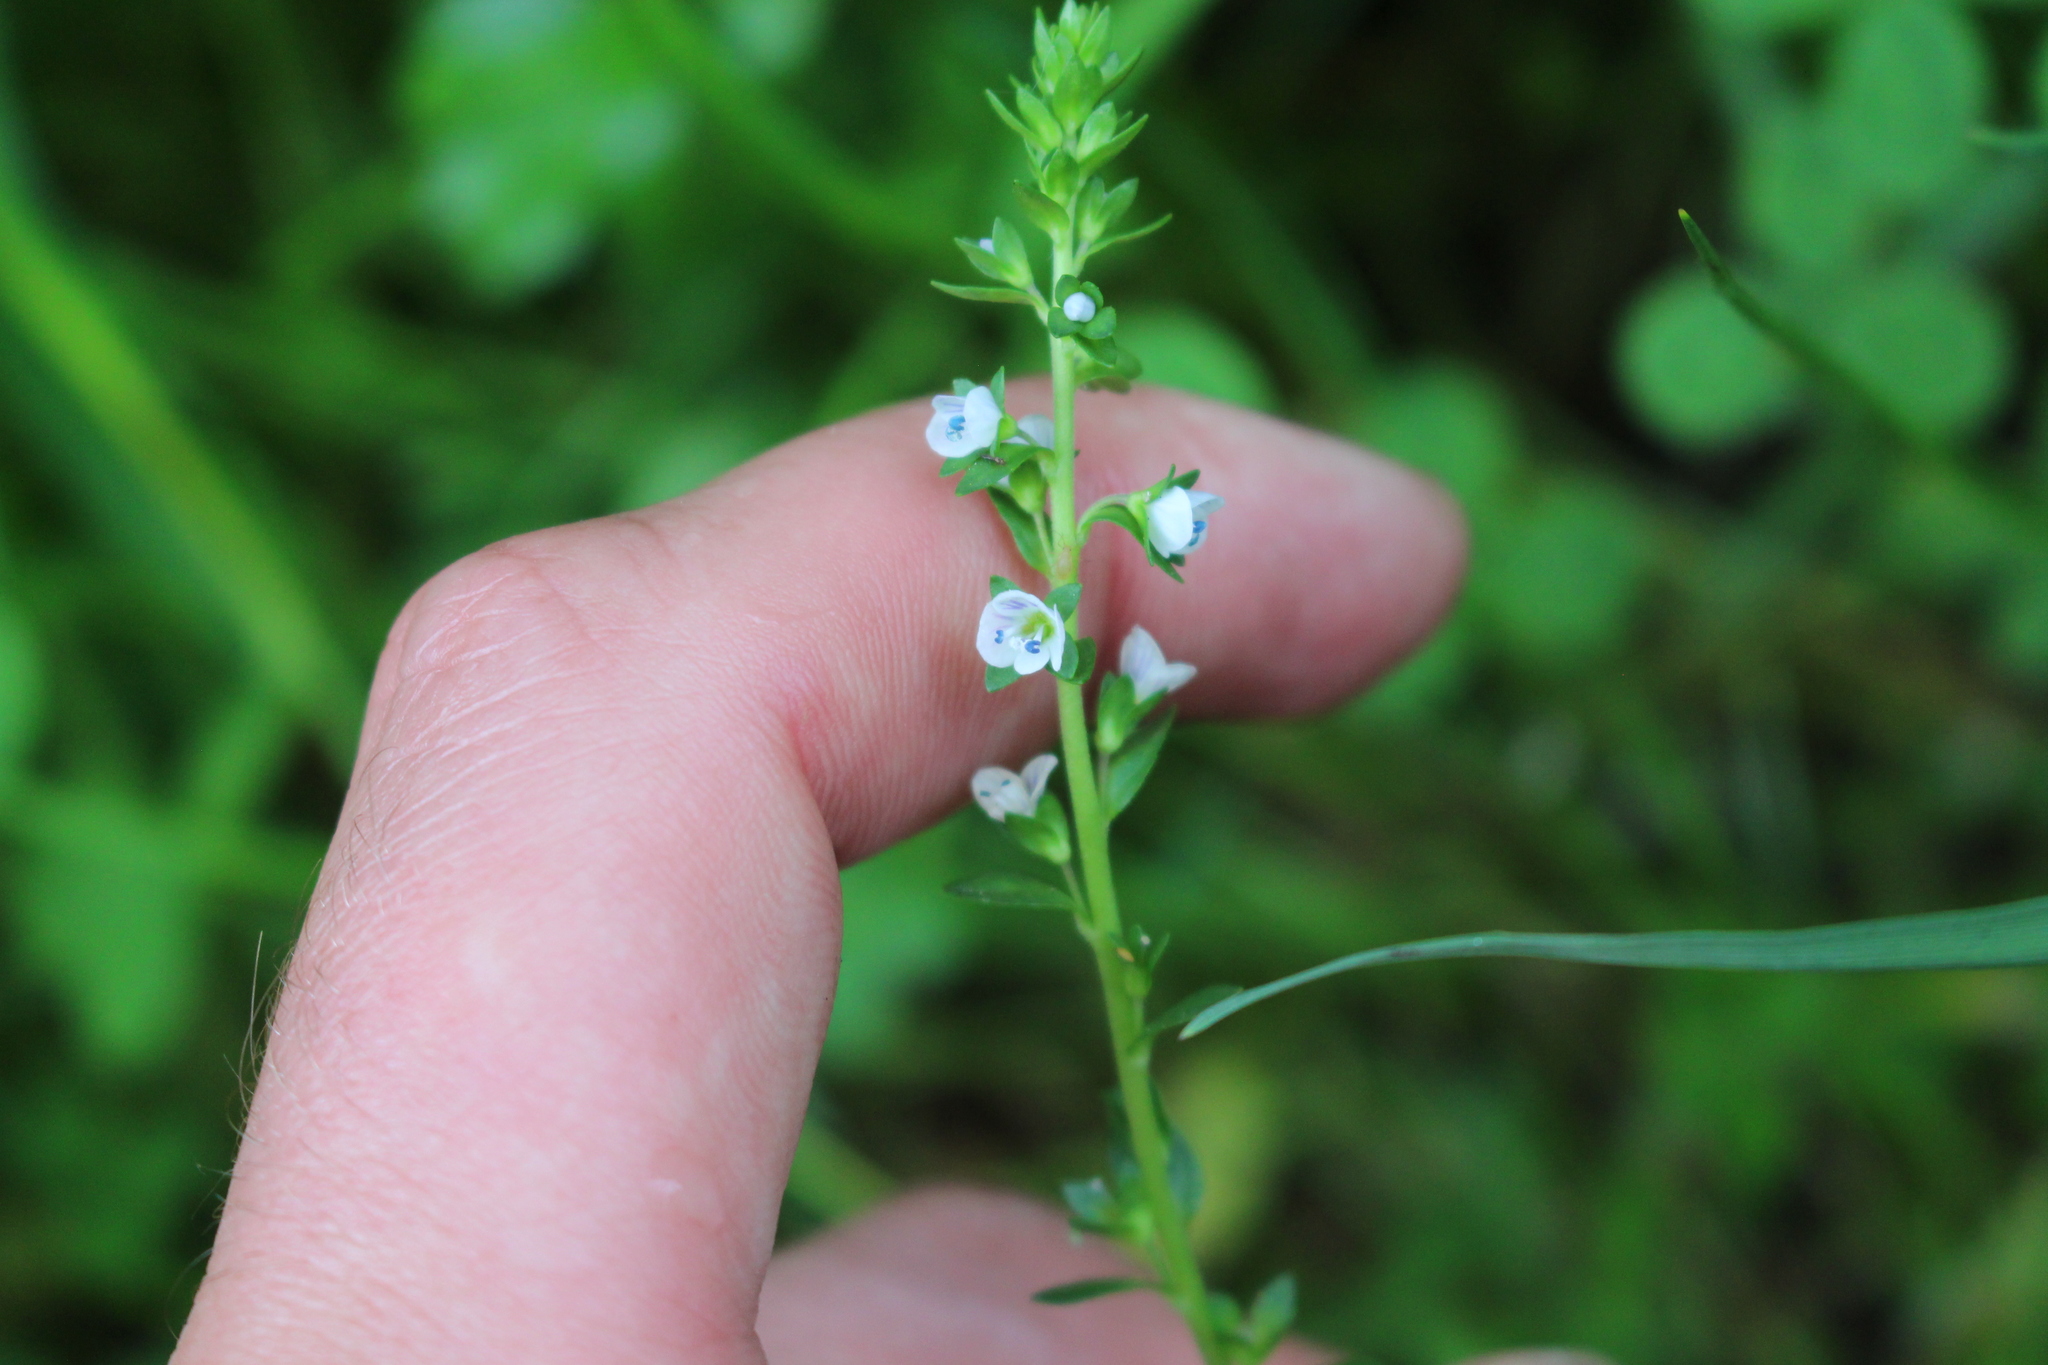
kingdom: Plantae
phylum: Tracheophyta
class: Magnoliopsida
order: Lamiales
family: Plantaginaceae
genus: Veronica
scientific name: Veronica serpyllifolia
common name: Thyme-leaved speedwell
